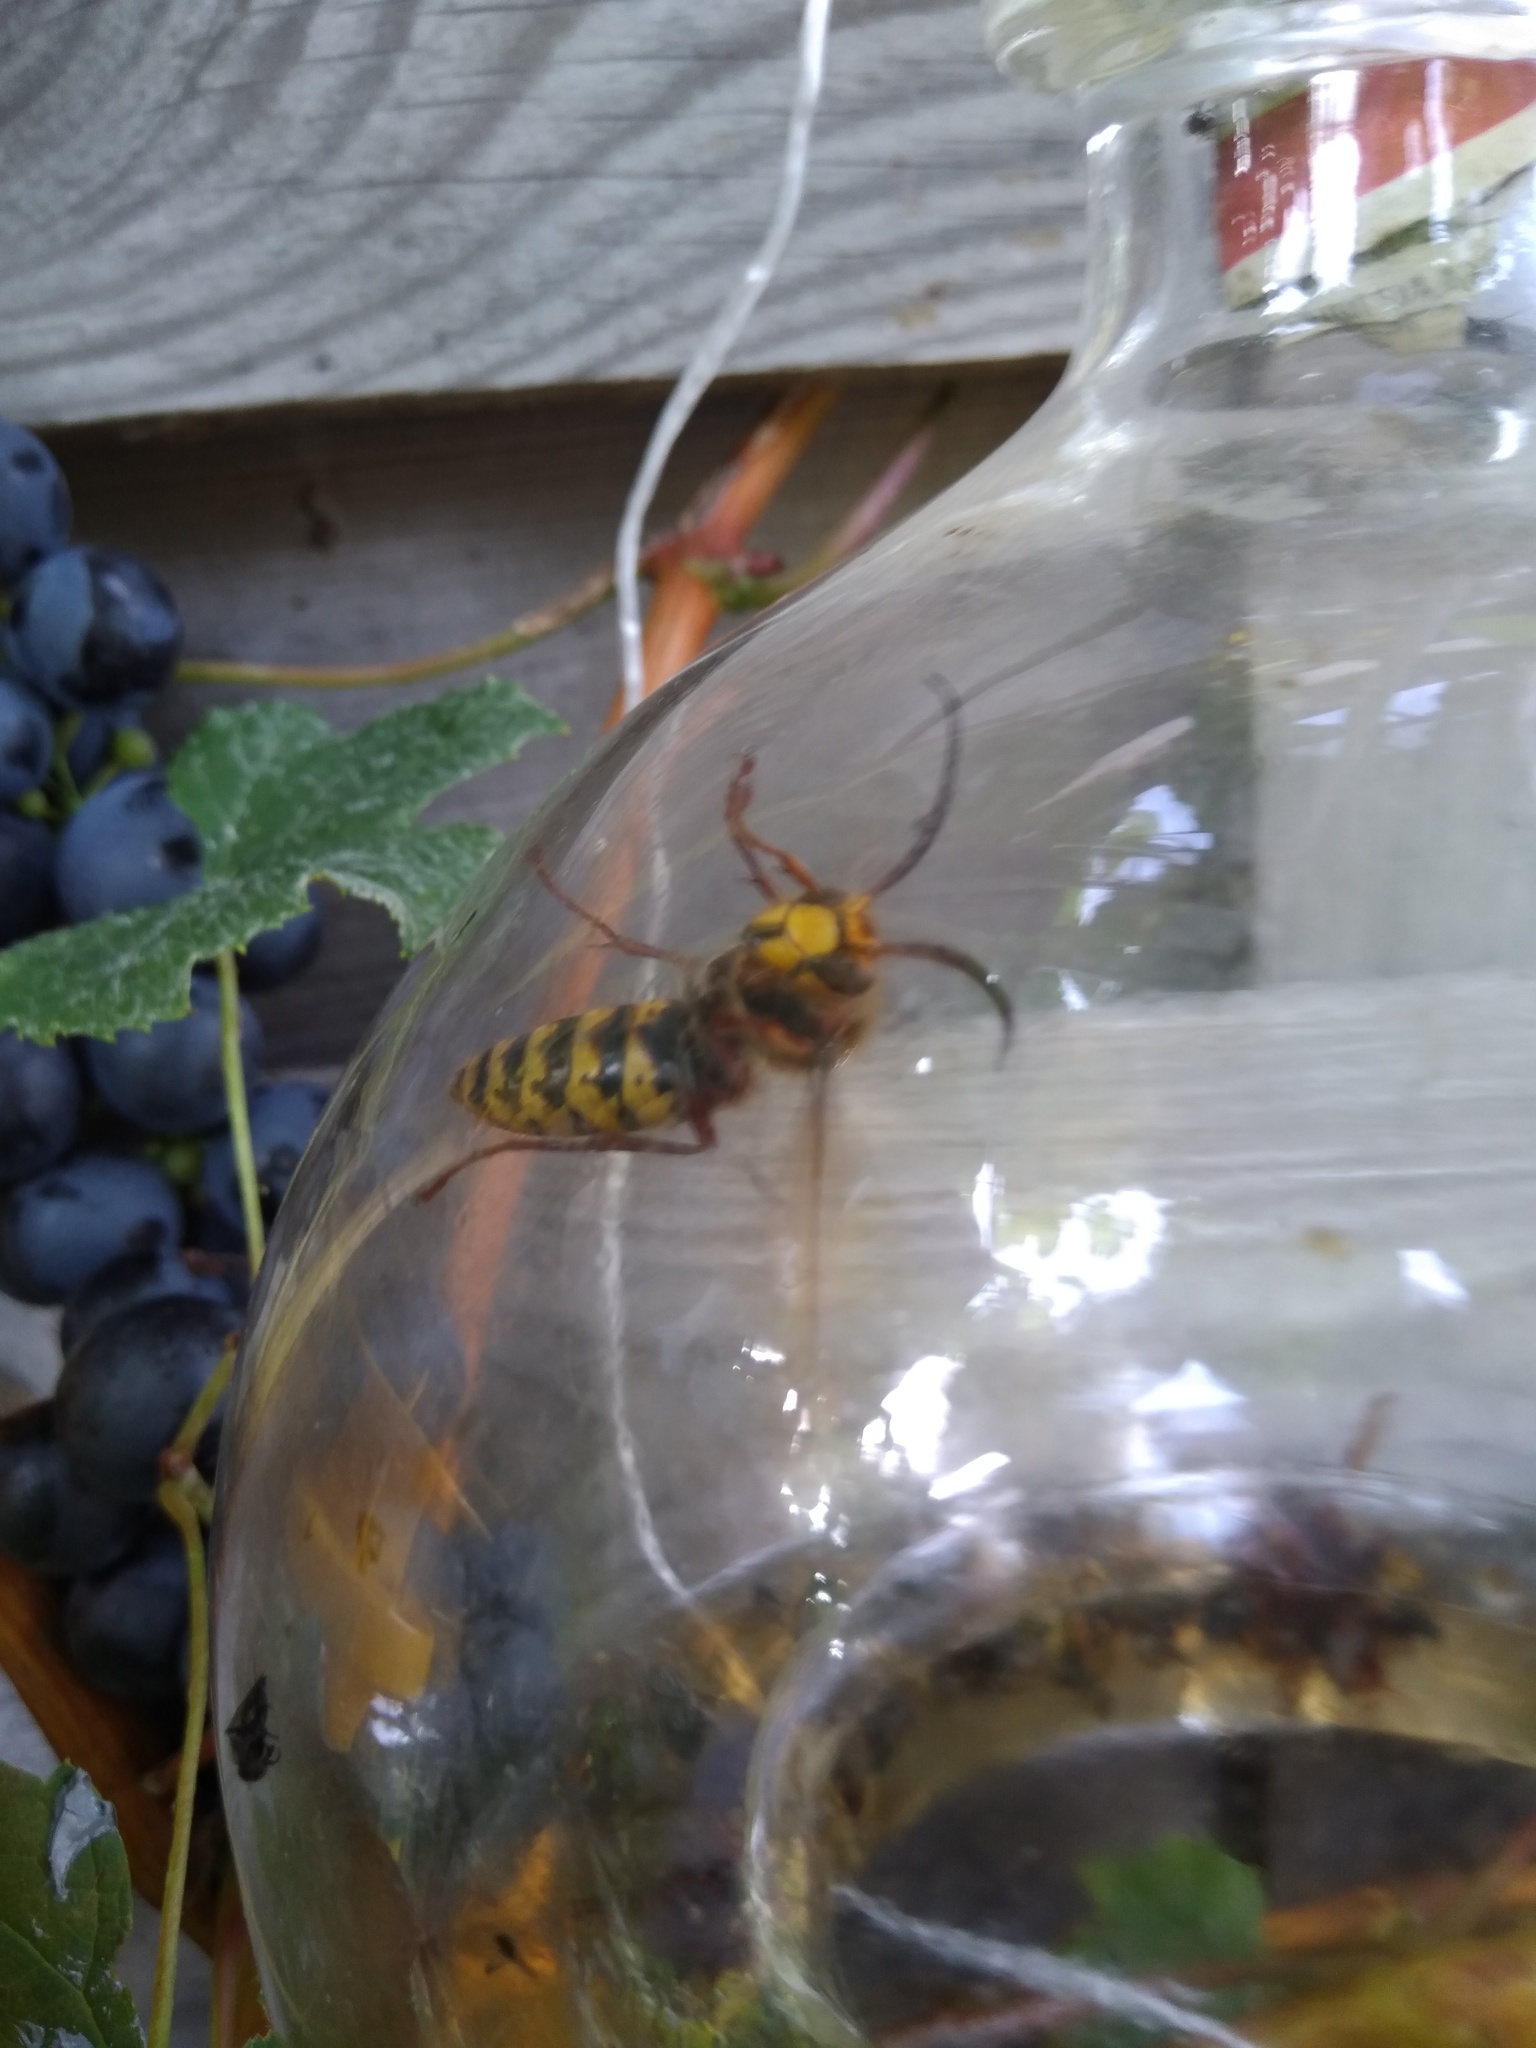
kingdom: Animalia
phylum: Arthropoda
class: Insecta
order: Hymenoptera
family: Vespidae
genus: Vespa
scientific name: Vespa crabro
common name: Hornet
